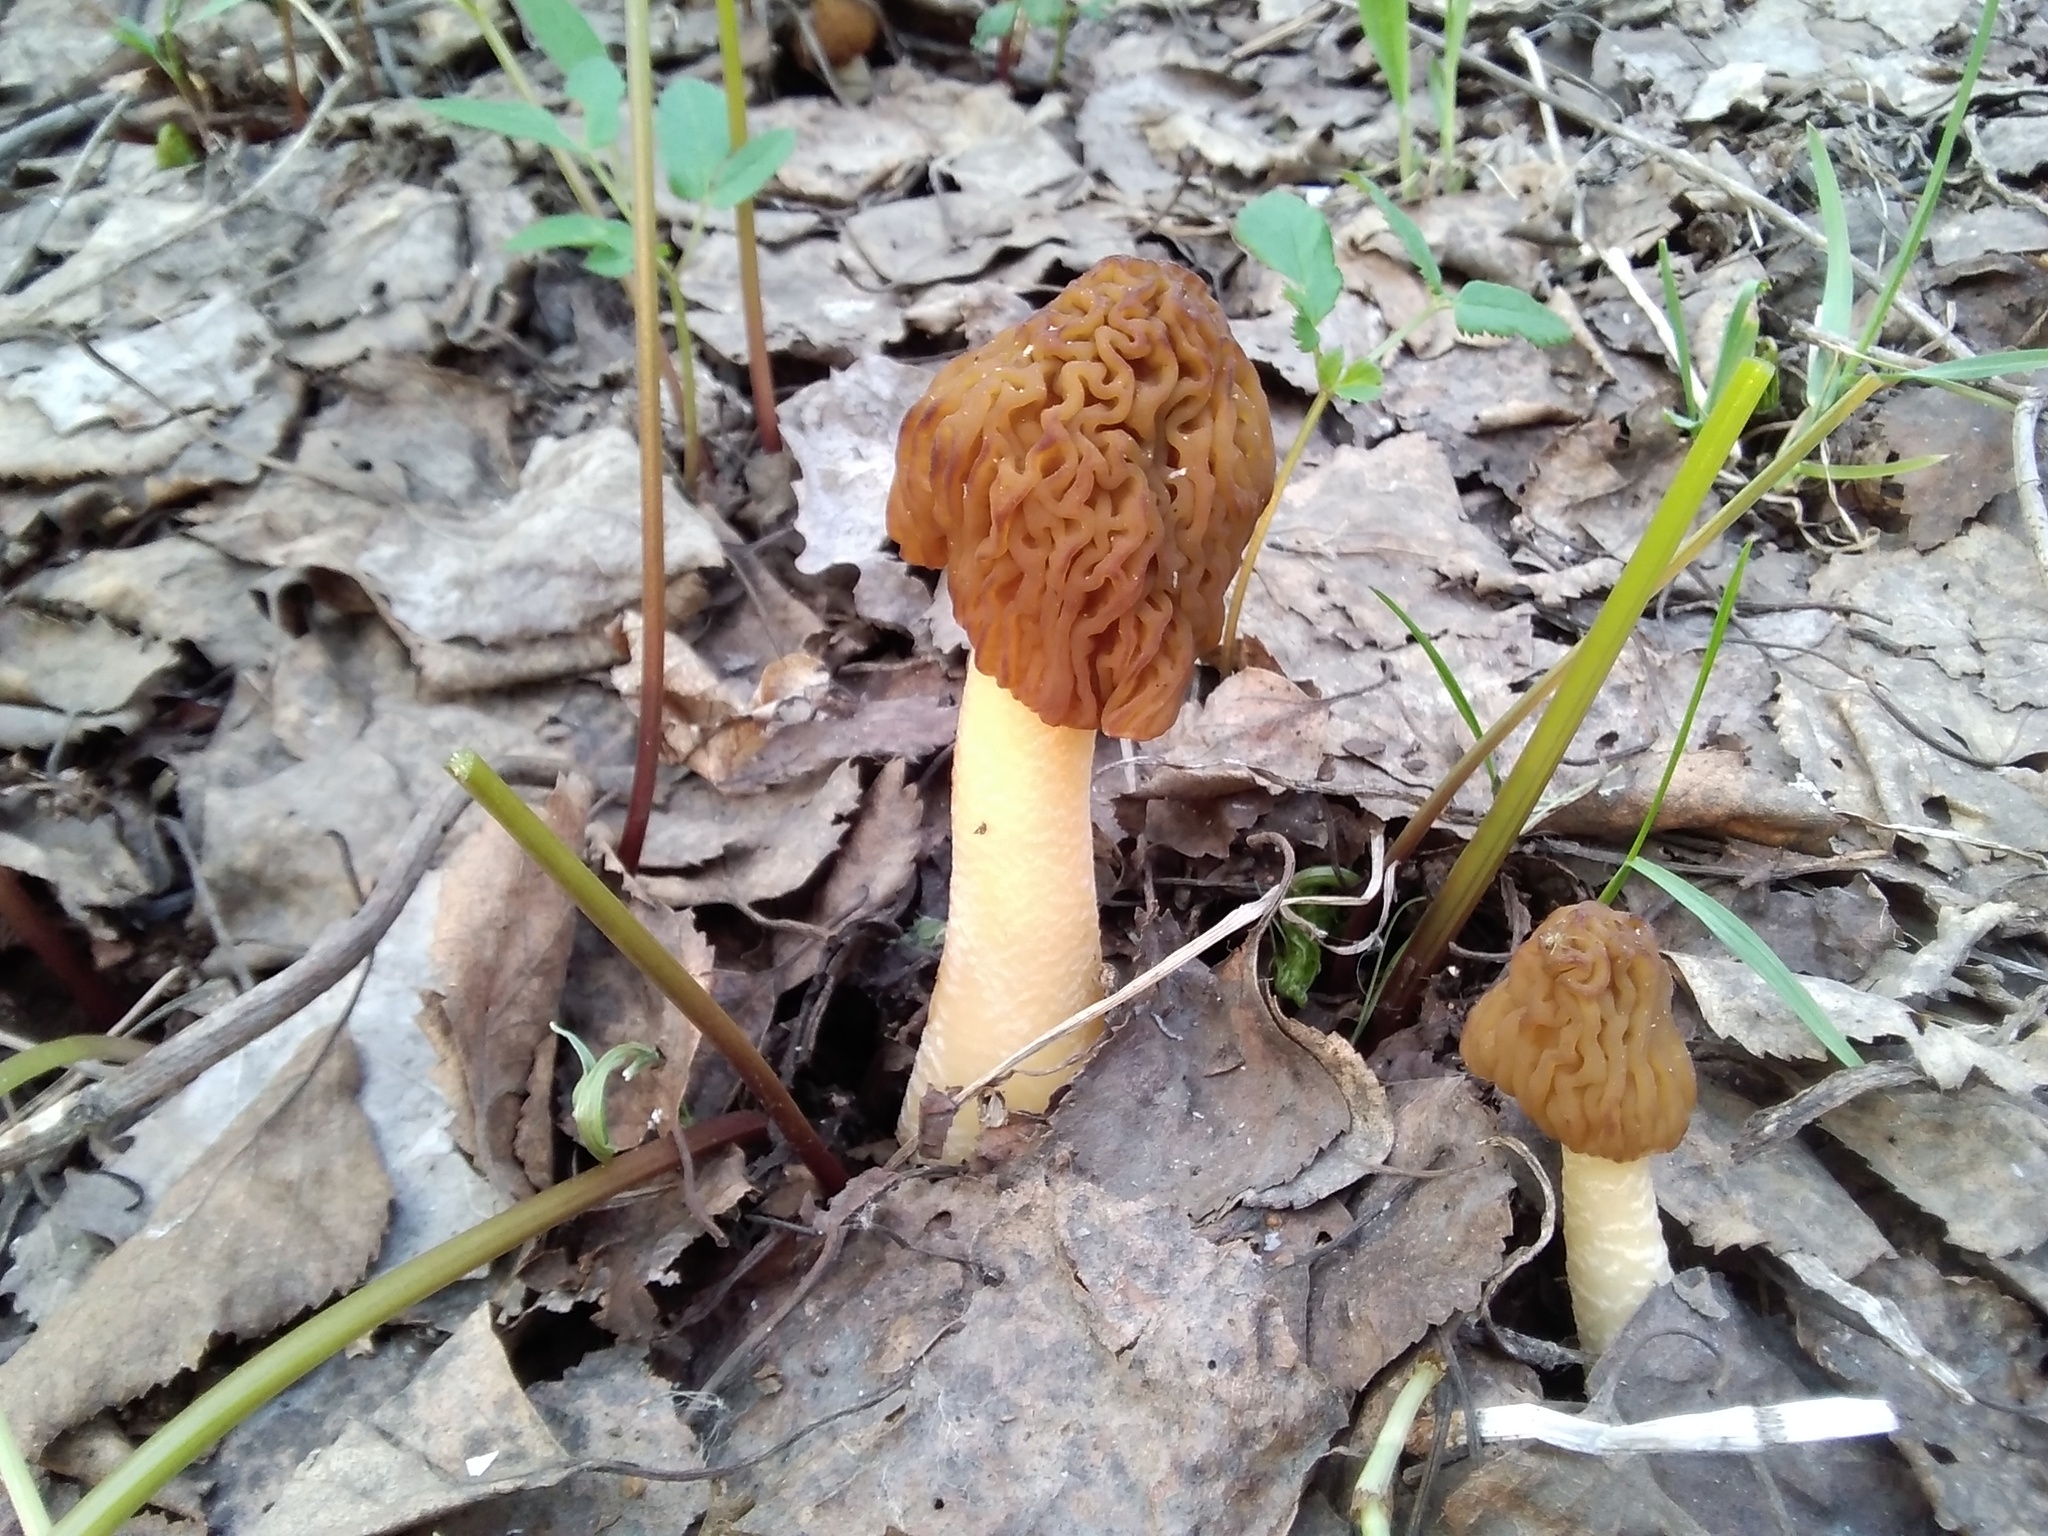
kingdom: Fungi
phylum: Ascomycota
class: Pezizomycetes
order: Pezizales
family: Morchellaceae
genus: Verpa
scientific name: Verpa bohemica
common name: Wrinkled thimble morel
